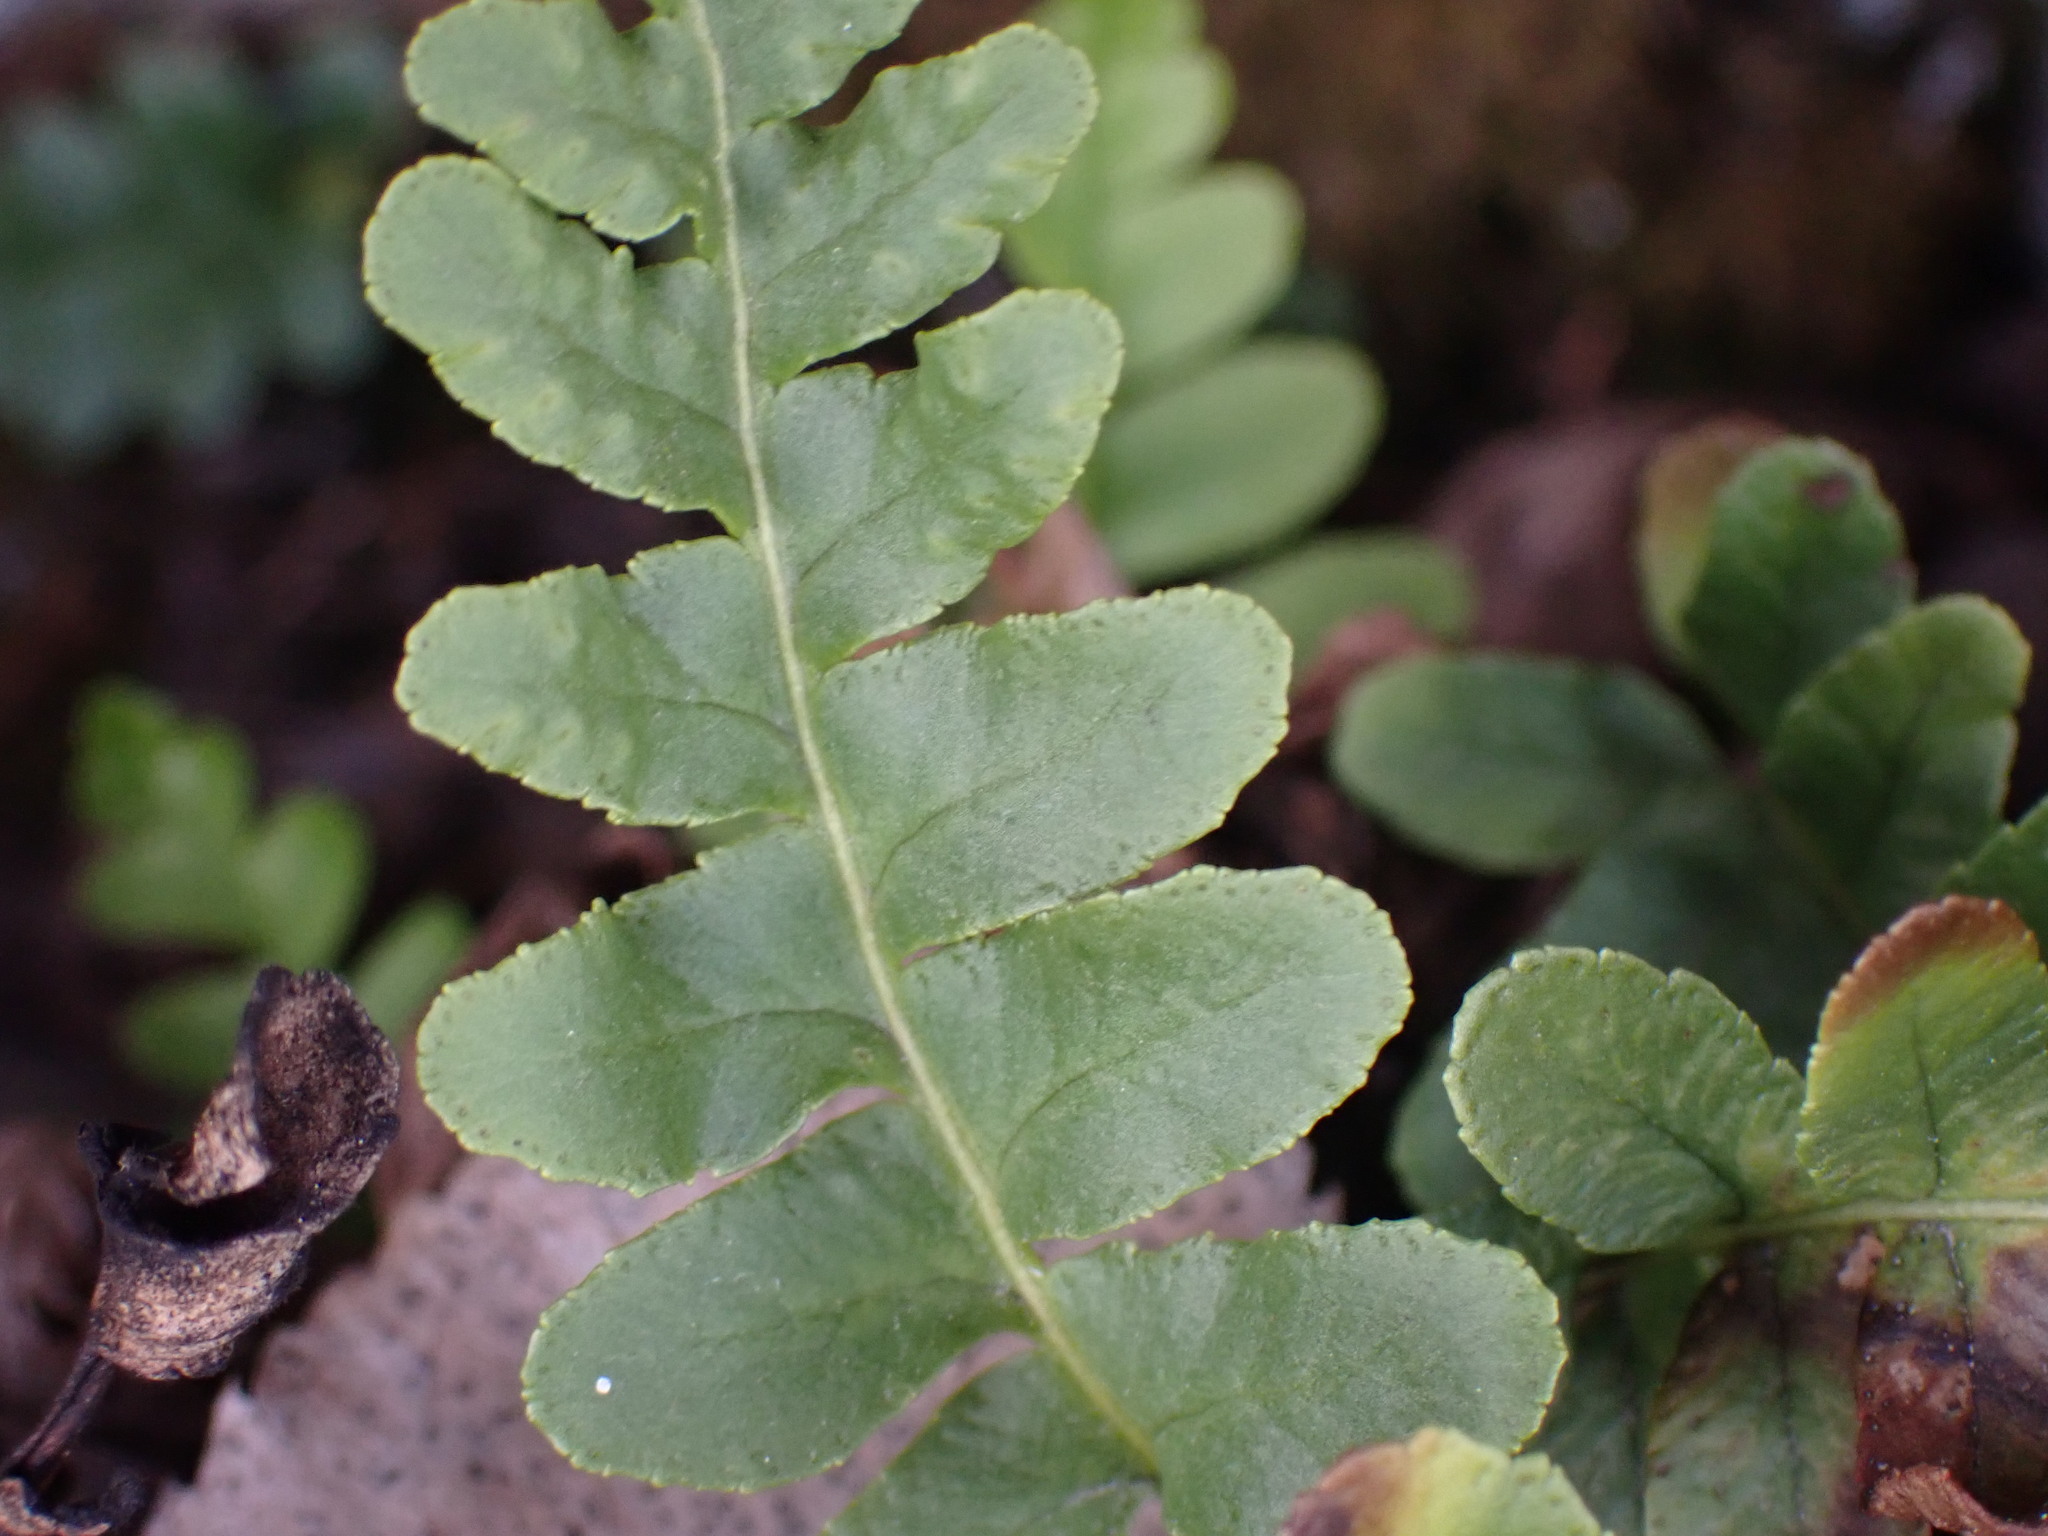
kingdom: Plantae
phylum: Tracheophyta
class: Polypodiopsida
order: Polypodiales
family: Polypodiaceae
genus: Polypodium
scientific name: Polypodium hesperium
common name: Western polypody
